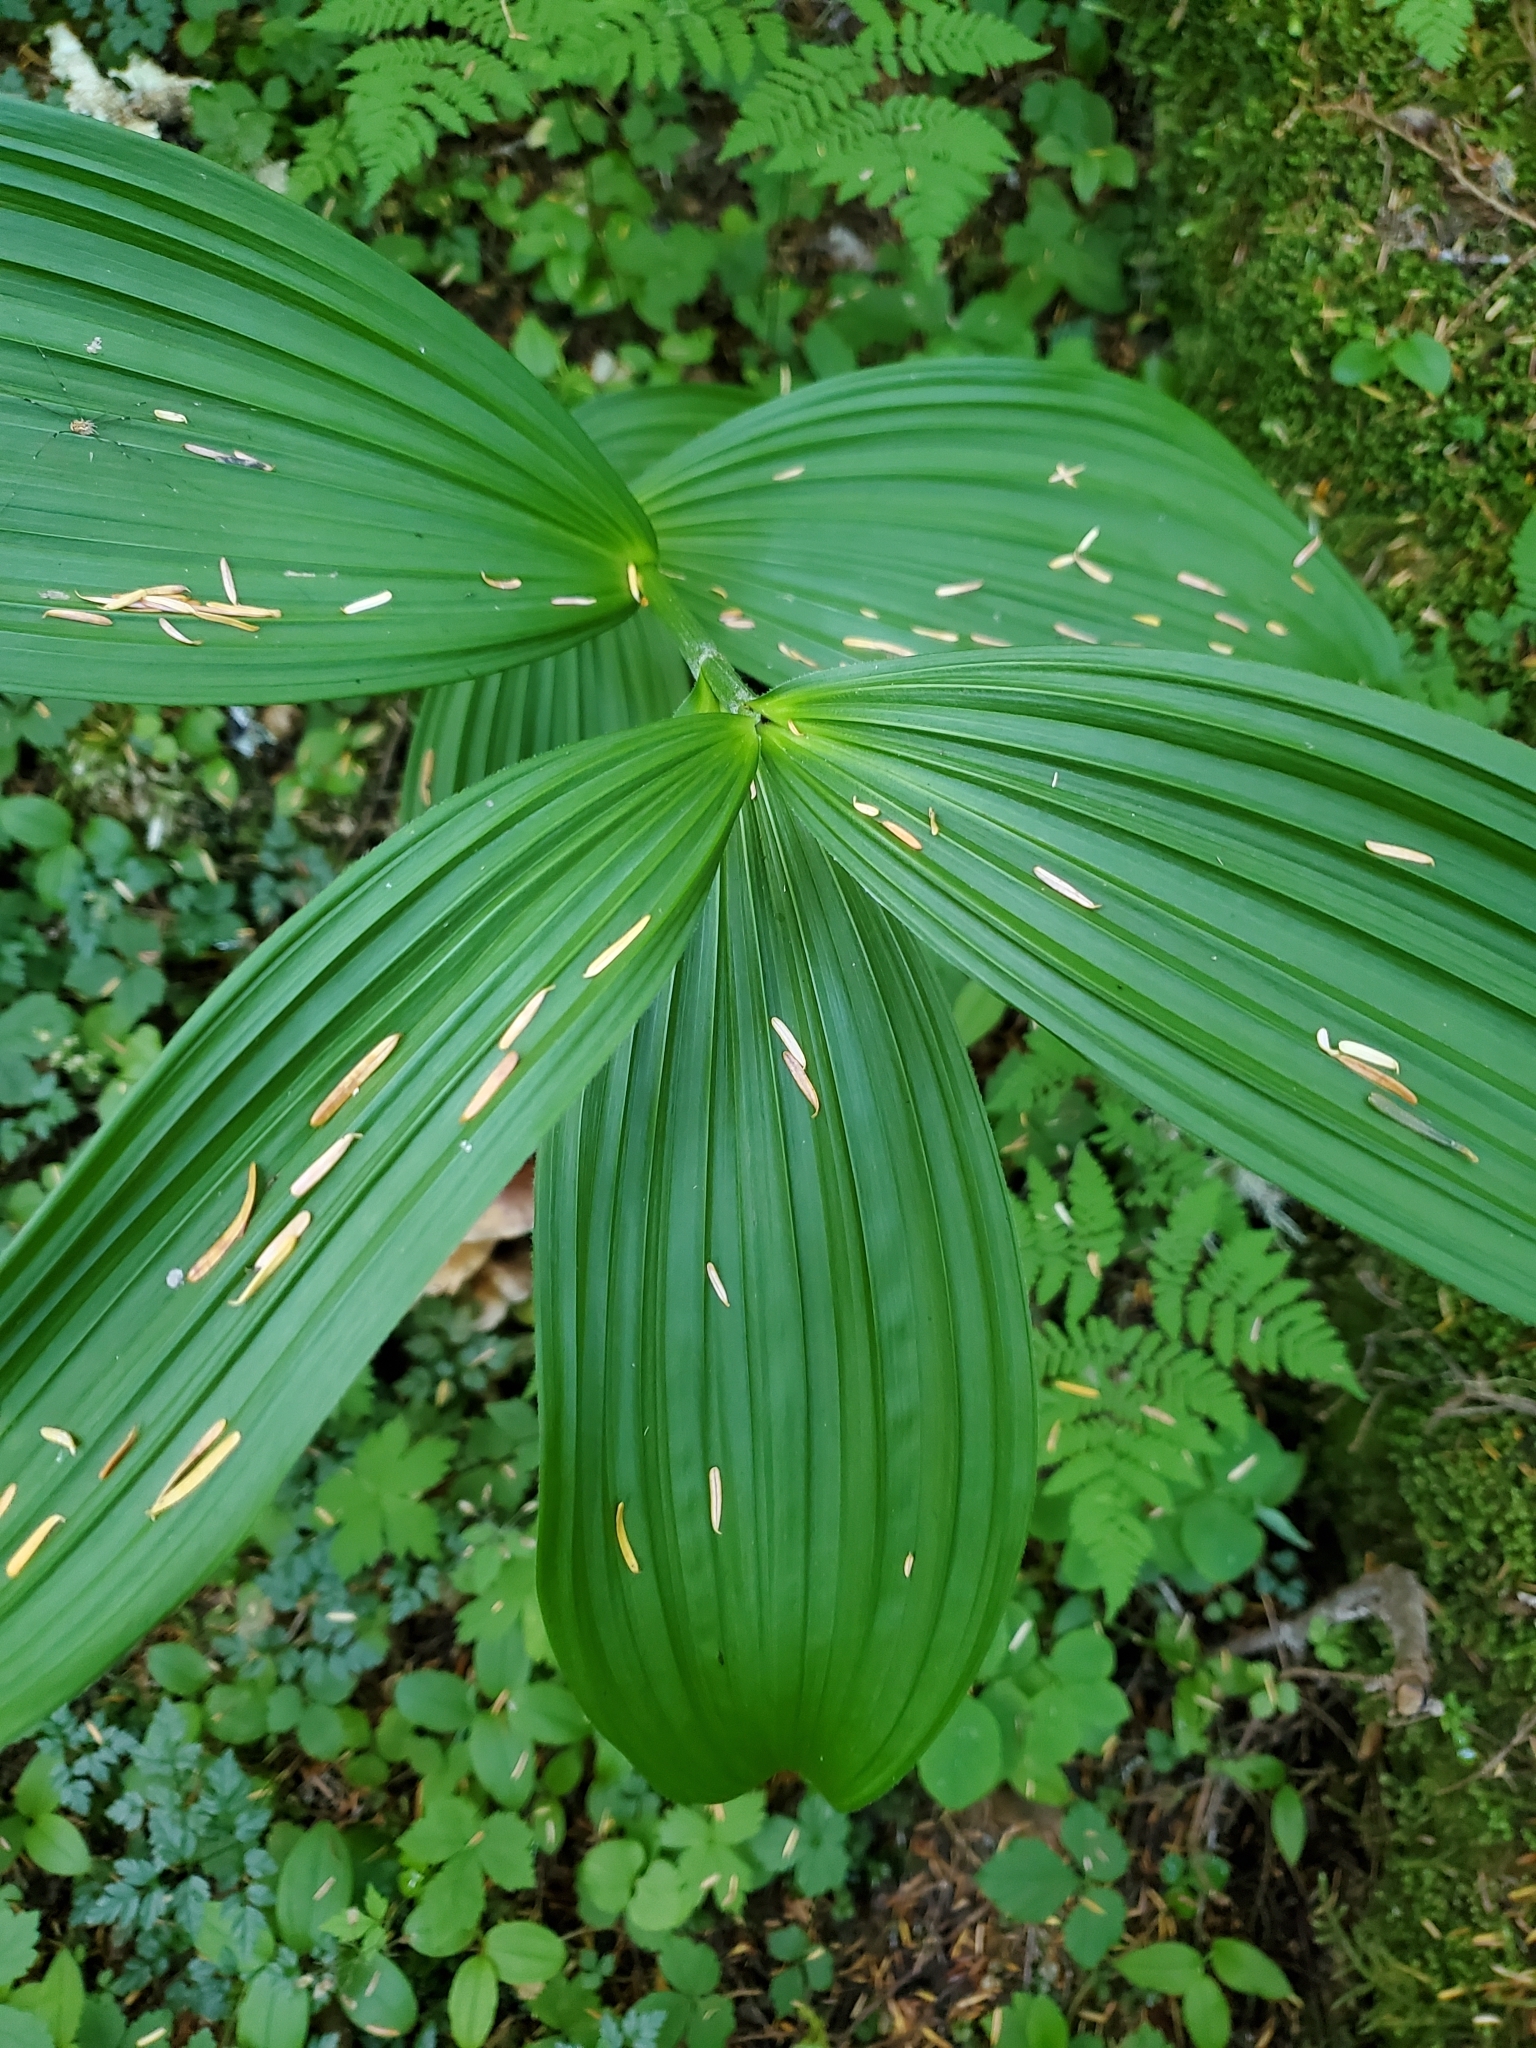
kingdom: Plantae
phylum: Tracheophyta
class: Liliopsida
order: Liliales
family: Melanthiaceae
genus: Veratrum
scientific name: Veratrum viride
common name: American false hellebore
